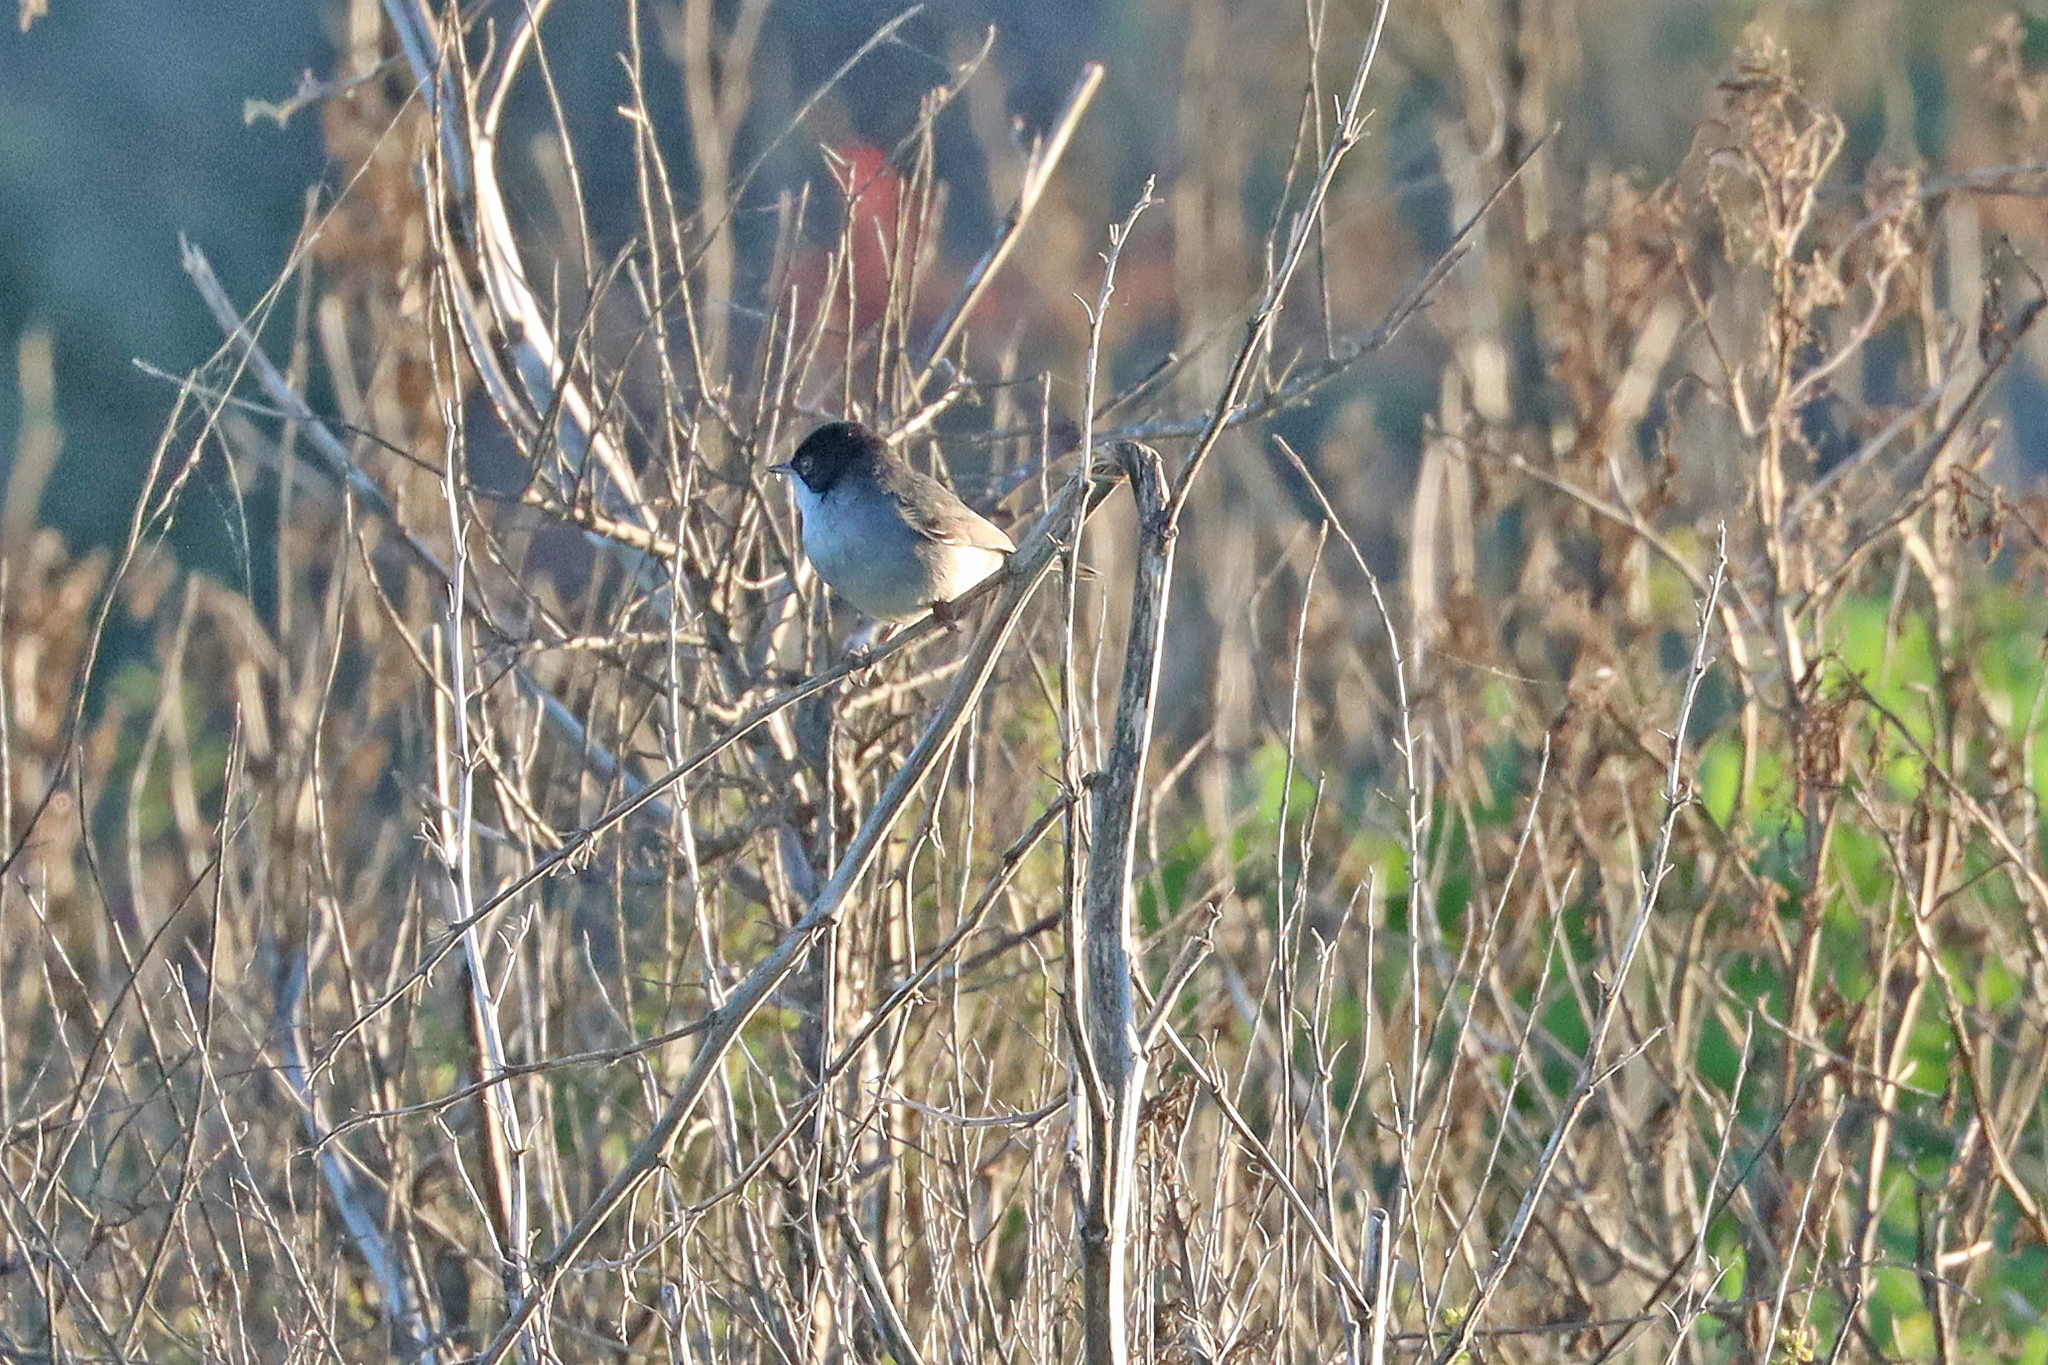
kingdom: Animalia
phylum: Chordata
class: Aves
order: Passeriformes
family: Sylviidae
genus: Curruca
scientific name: Curruca melanocephala
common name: Sardinian warbler
